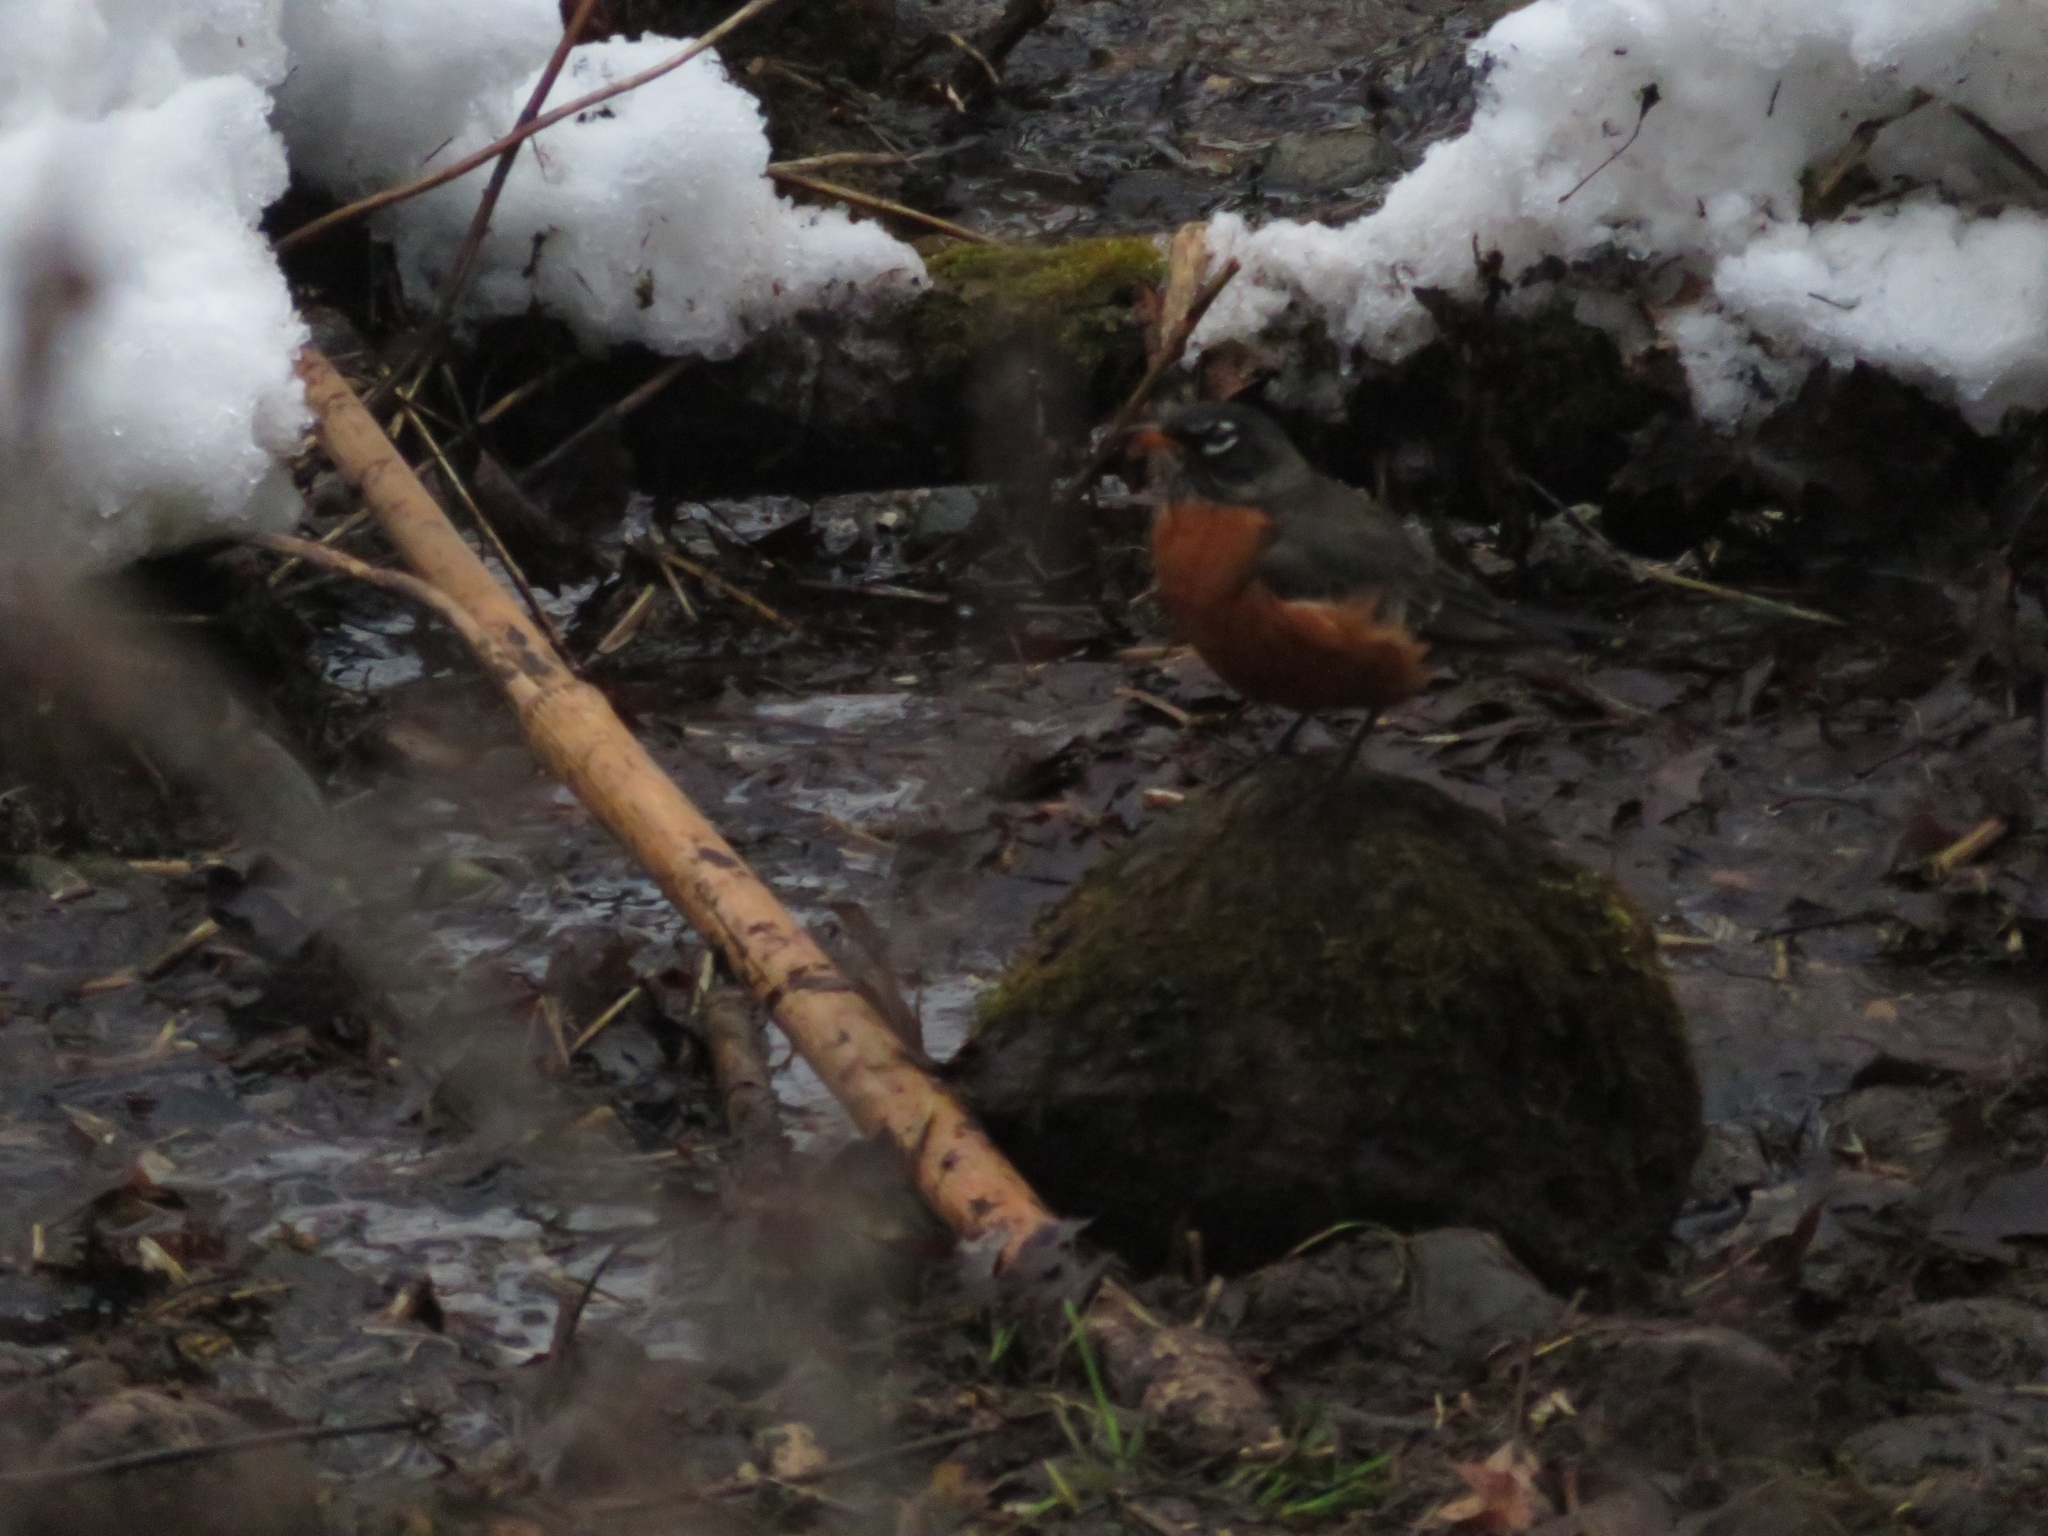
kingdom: Animalia
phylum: Chordata
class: Aves
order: Passeriformes
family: Turdidae
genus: Turdus
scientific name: Turdus migratorius
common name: American robin
